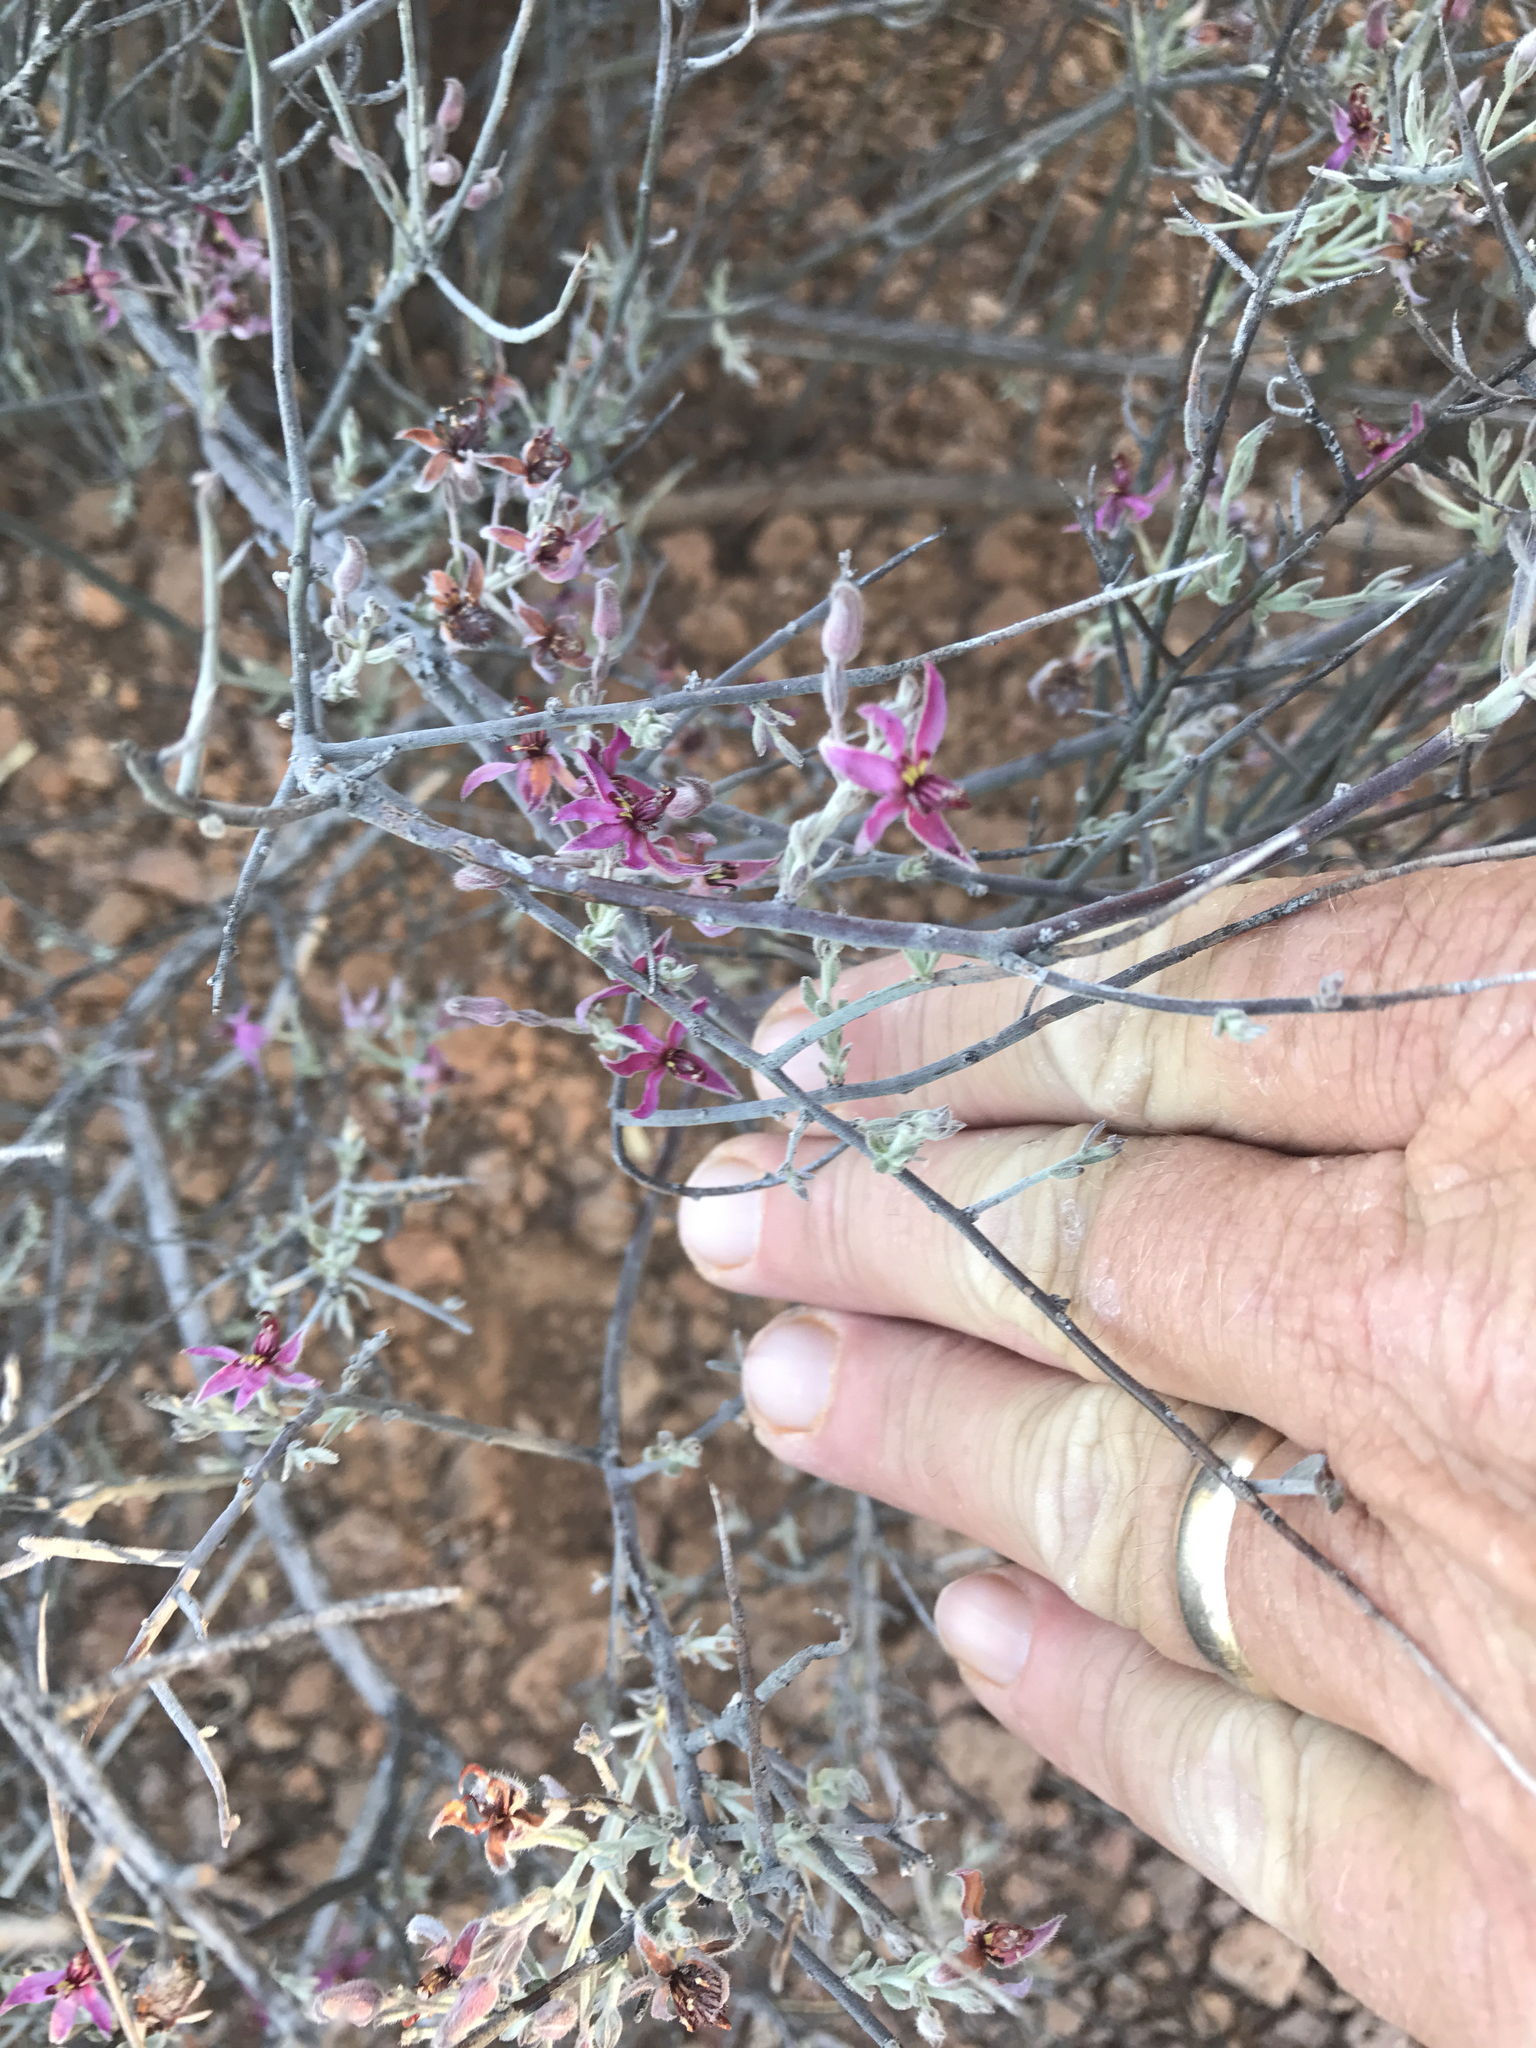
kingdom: Plantae
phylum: Tracheophyta
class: Magnoliopsida
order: Zygophyllales
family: Krameriaceae
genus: Krameria
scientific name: Krameria bicolor
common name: White ratany
